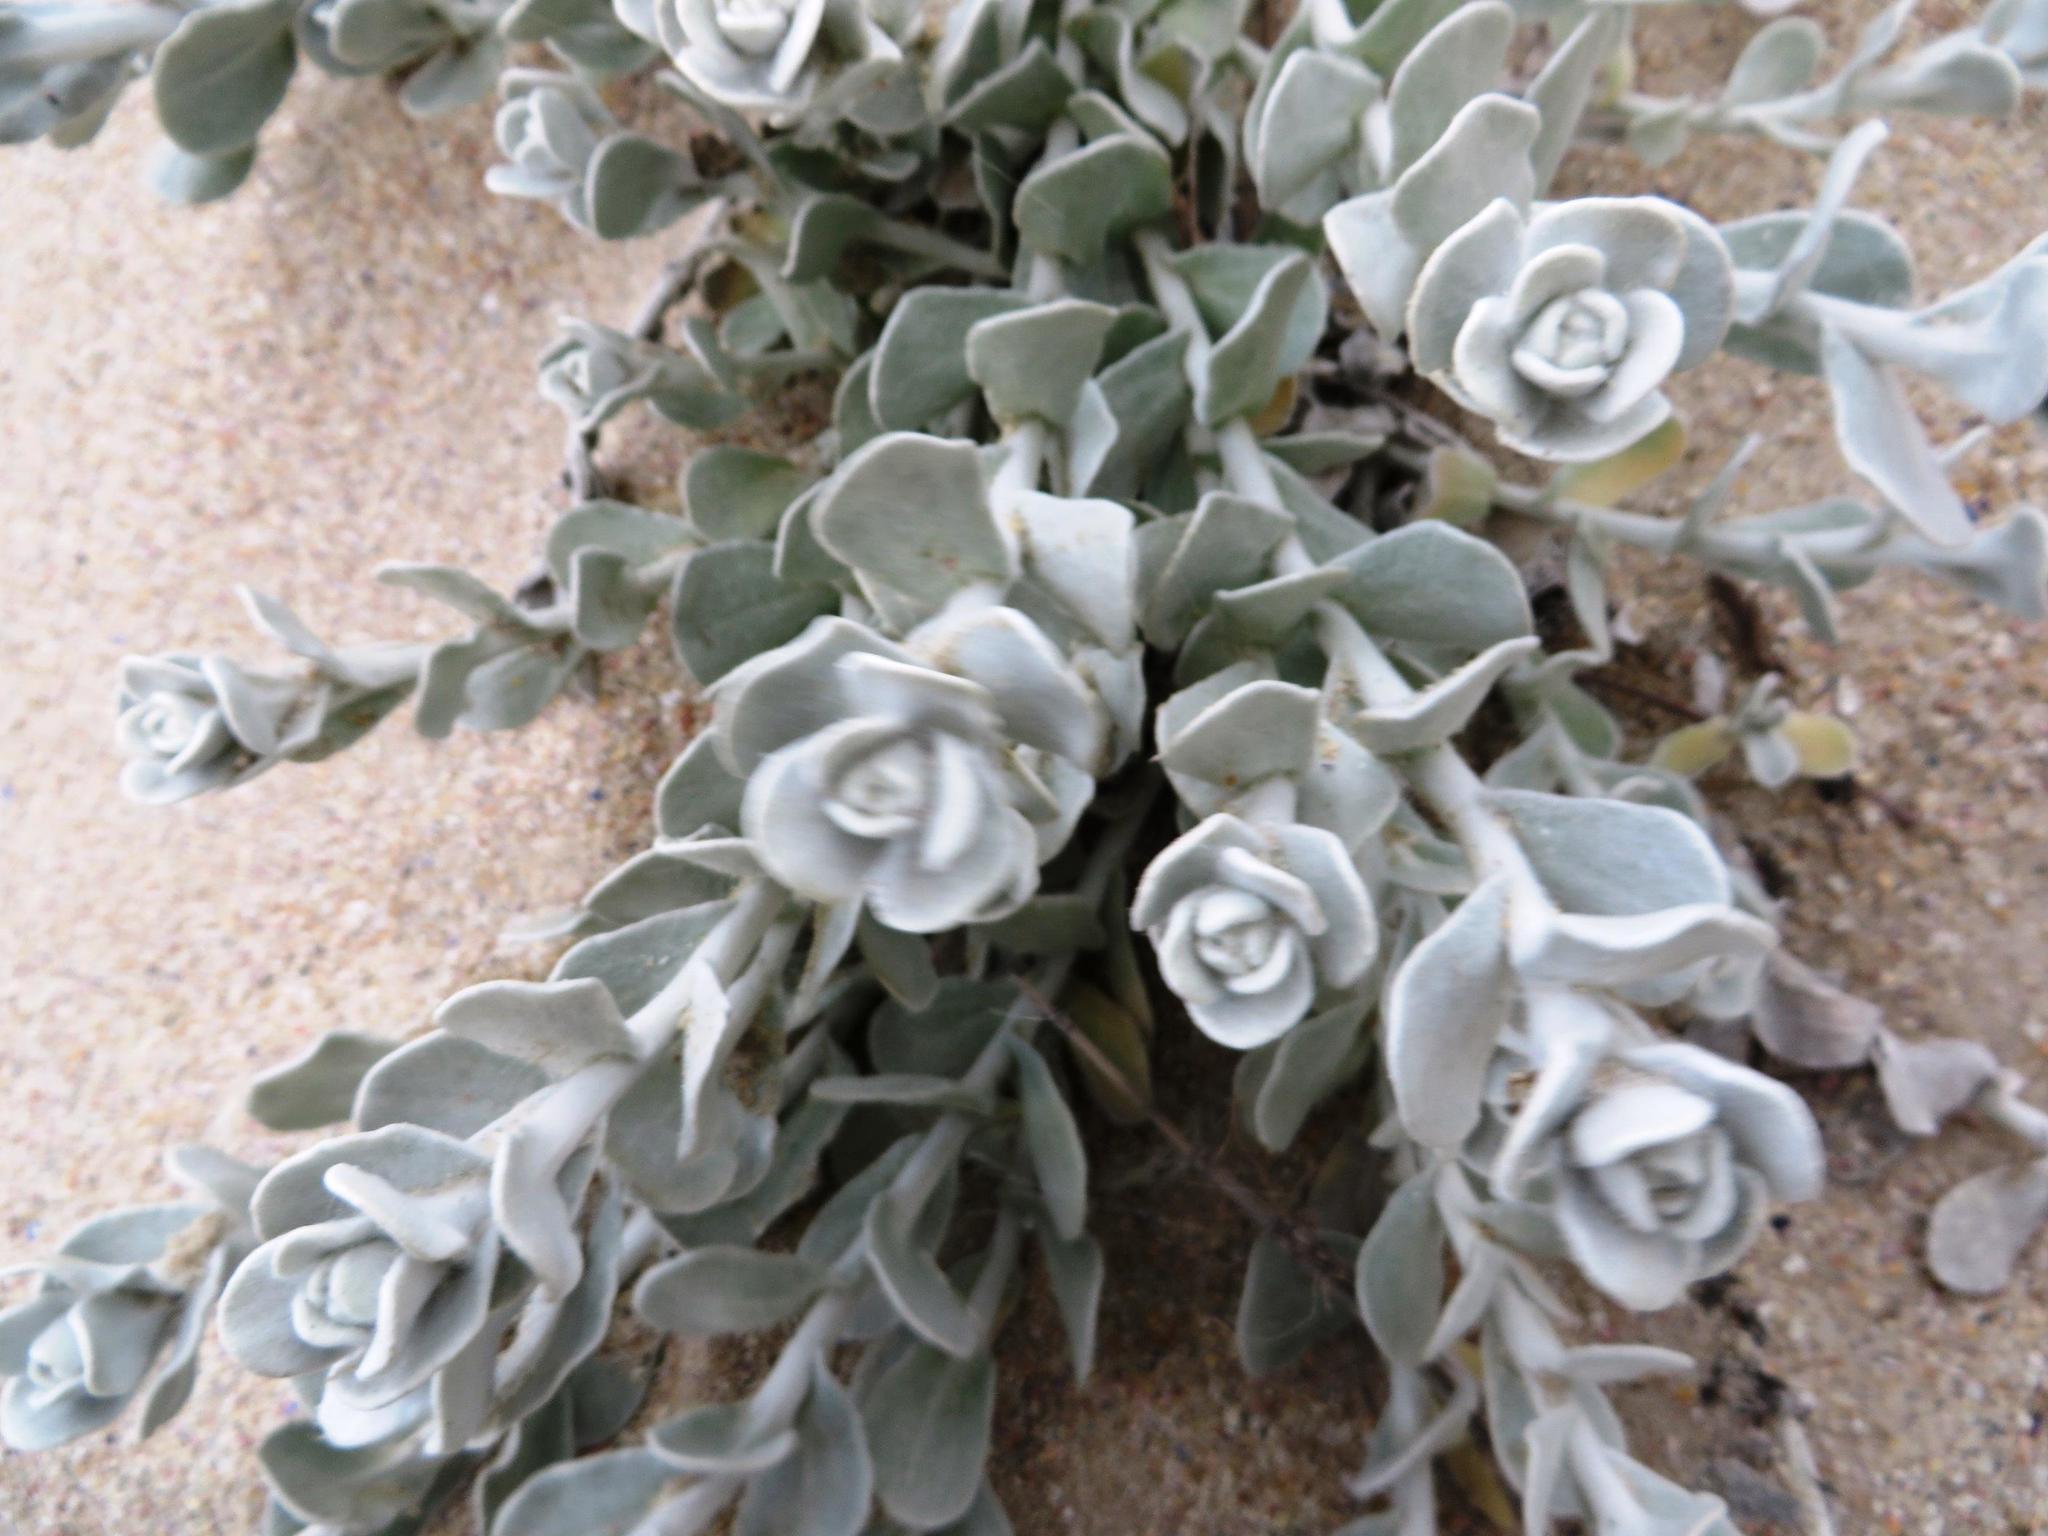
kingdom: Plantae
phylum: Tracheophyta
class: Magnoliopsida
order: Asterales
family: Asteraceae
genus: Helichrysum
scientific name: Helichrysum crispum
